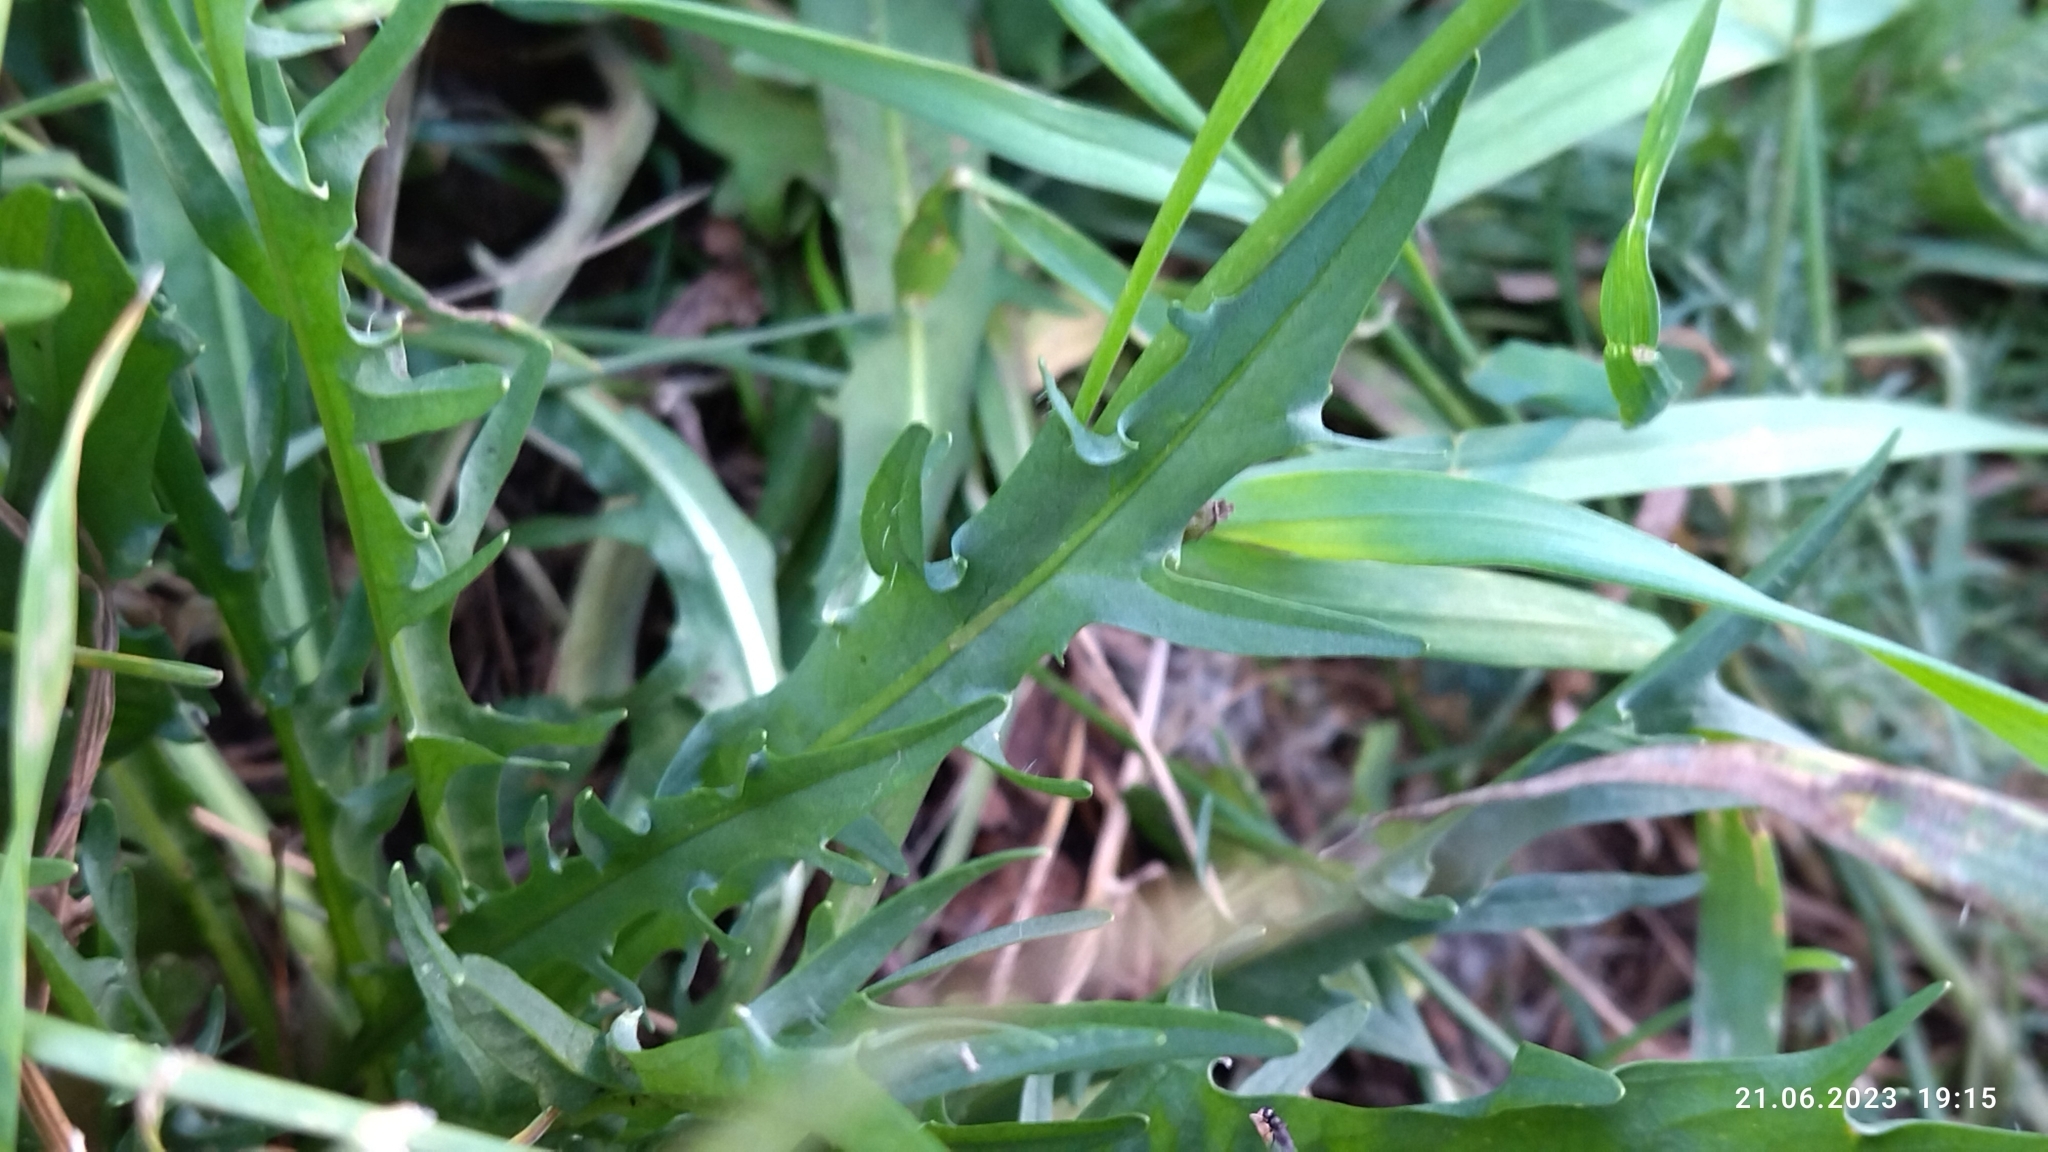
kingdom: Plantae
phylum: Tracheophyta
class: Magnoliopsida
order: Asterales
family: Asteraceae
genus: Scorzoneroides
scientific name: Scorzoneroides autumnalis
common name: Autumn hawkbit
